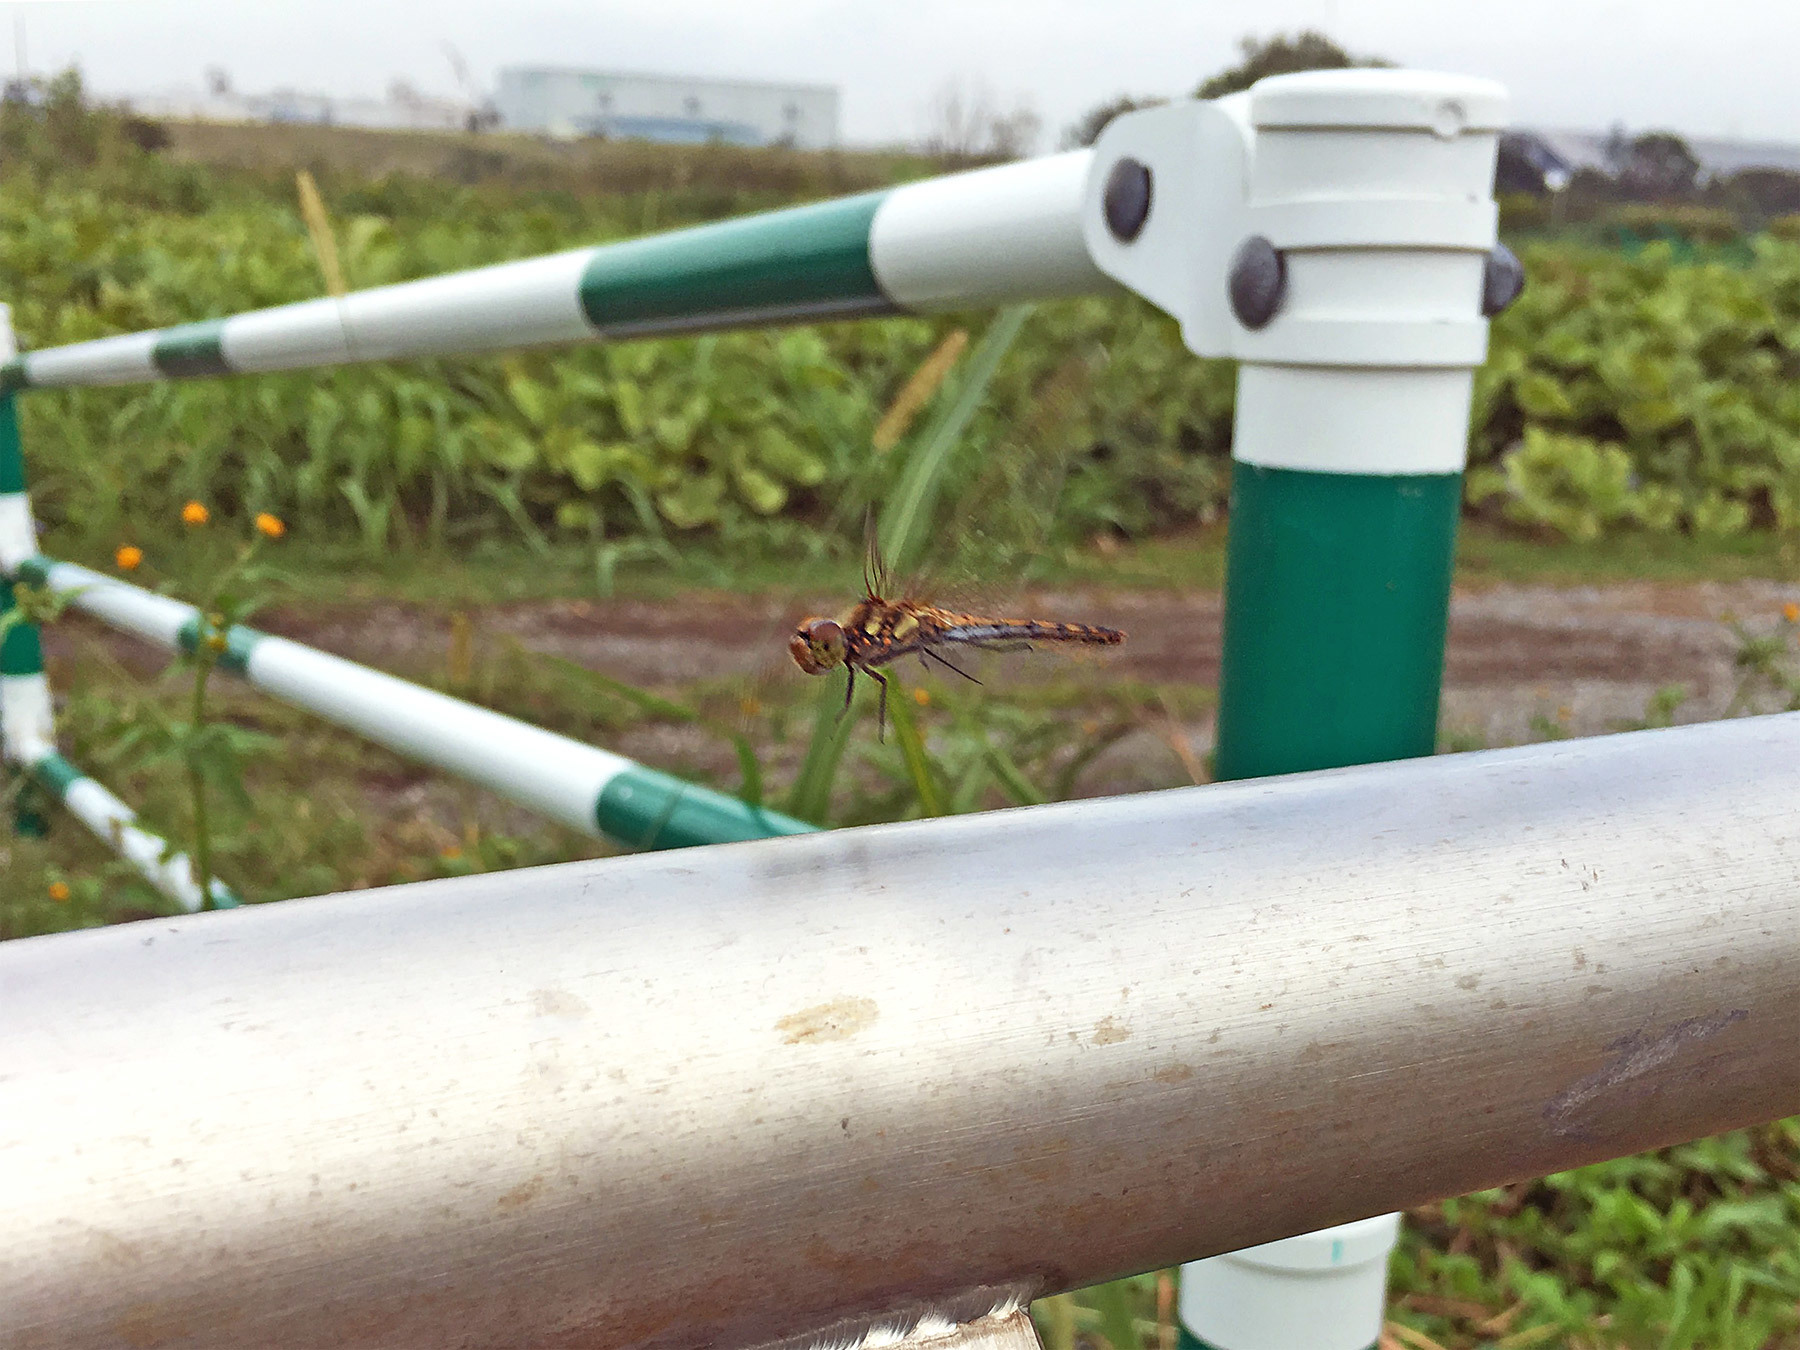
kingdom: Animalia
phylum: Arthropoda
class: Insecta
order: Odonata
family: Libellulidae
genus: Sympetrum
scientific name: Sympetrum frequens
